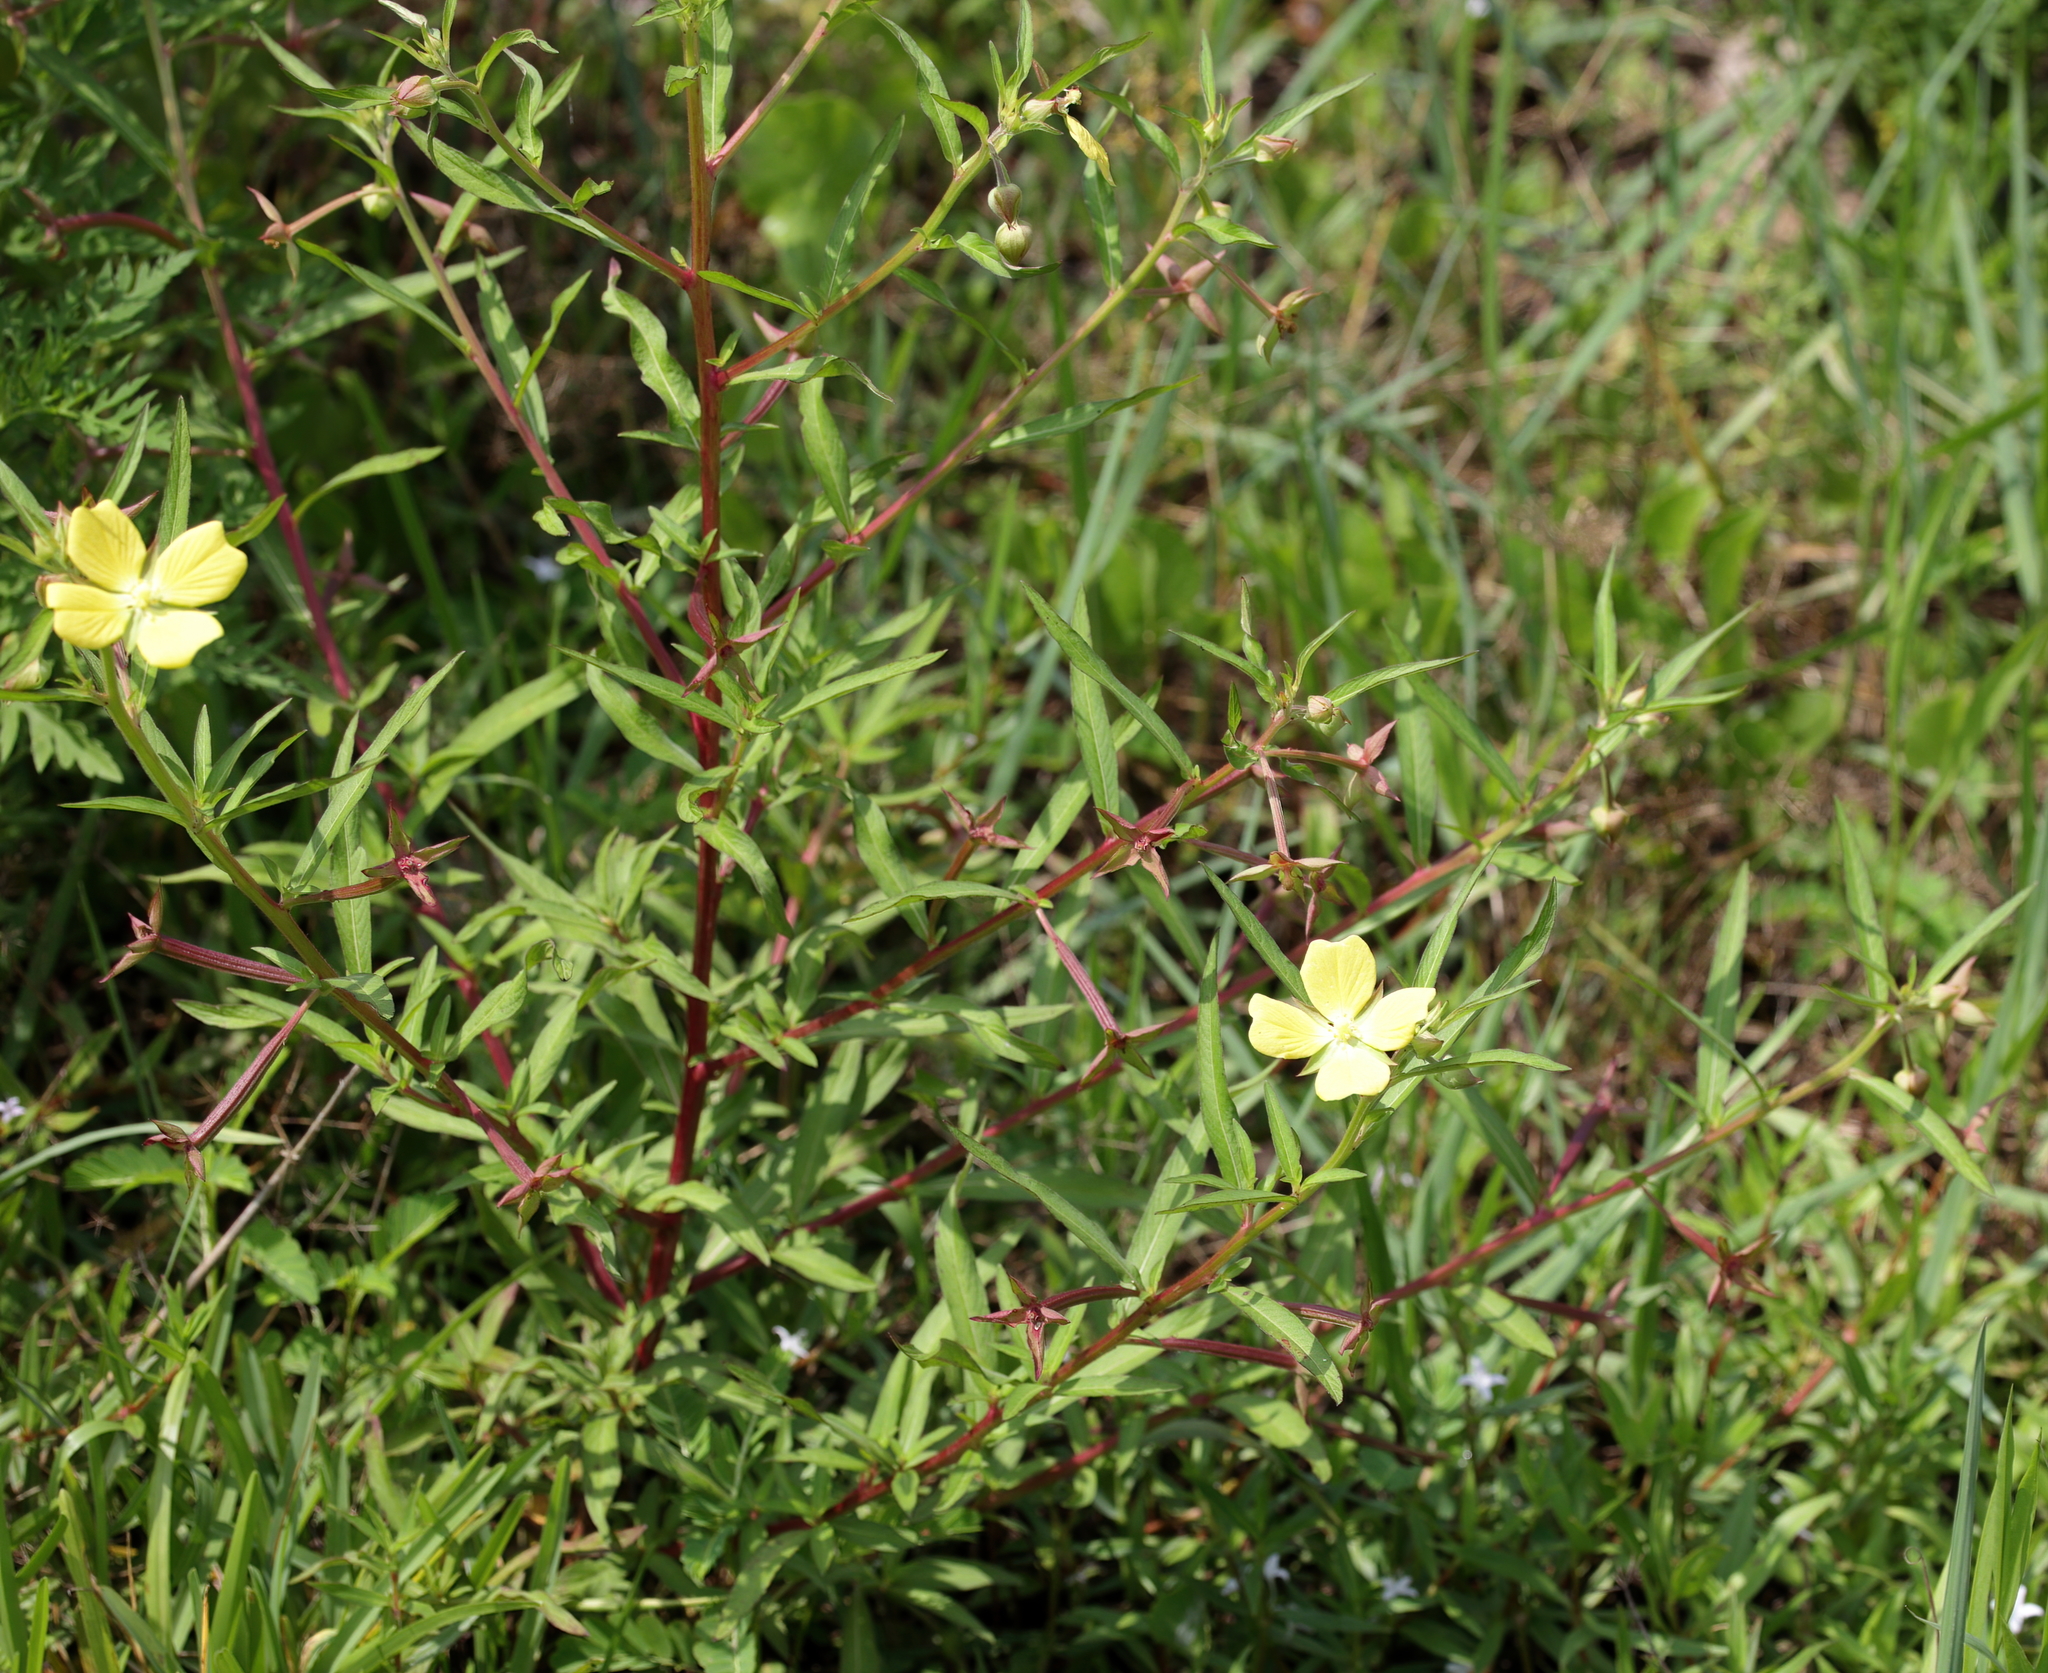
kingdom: Plantae
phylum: Tracheophyta
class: Magnoliopsida
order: Myrtales
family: Onagraceae
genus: Ludwigia
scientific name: Ludwigia octovalvis
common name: Water-primrose
